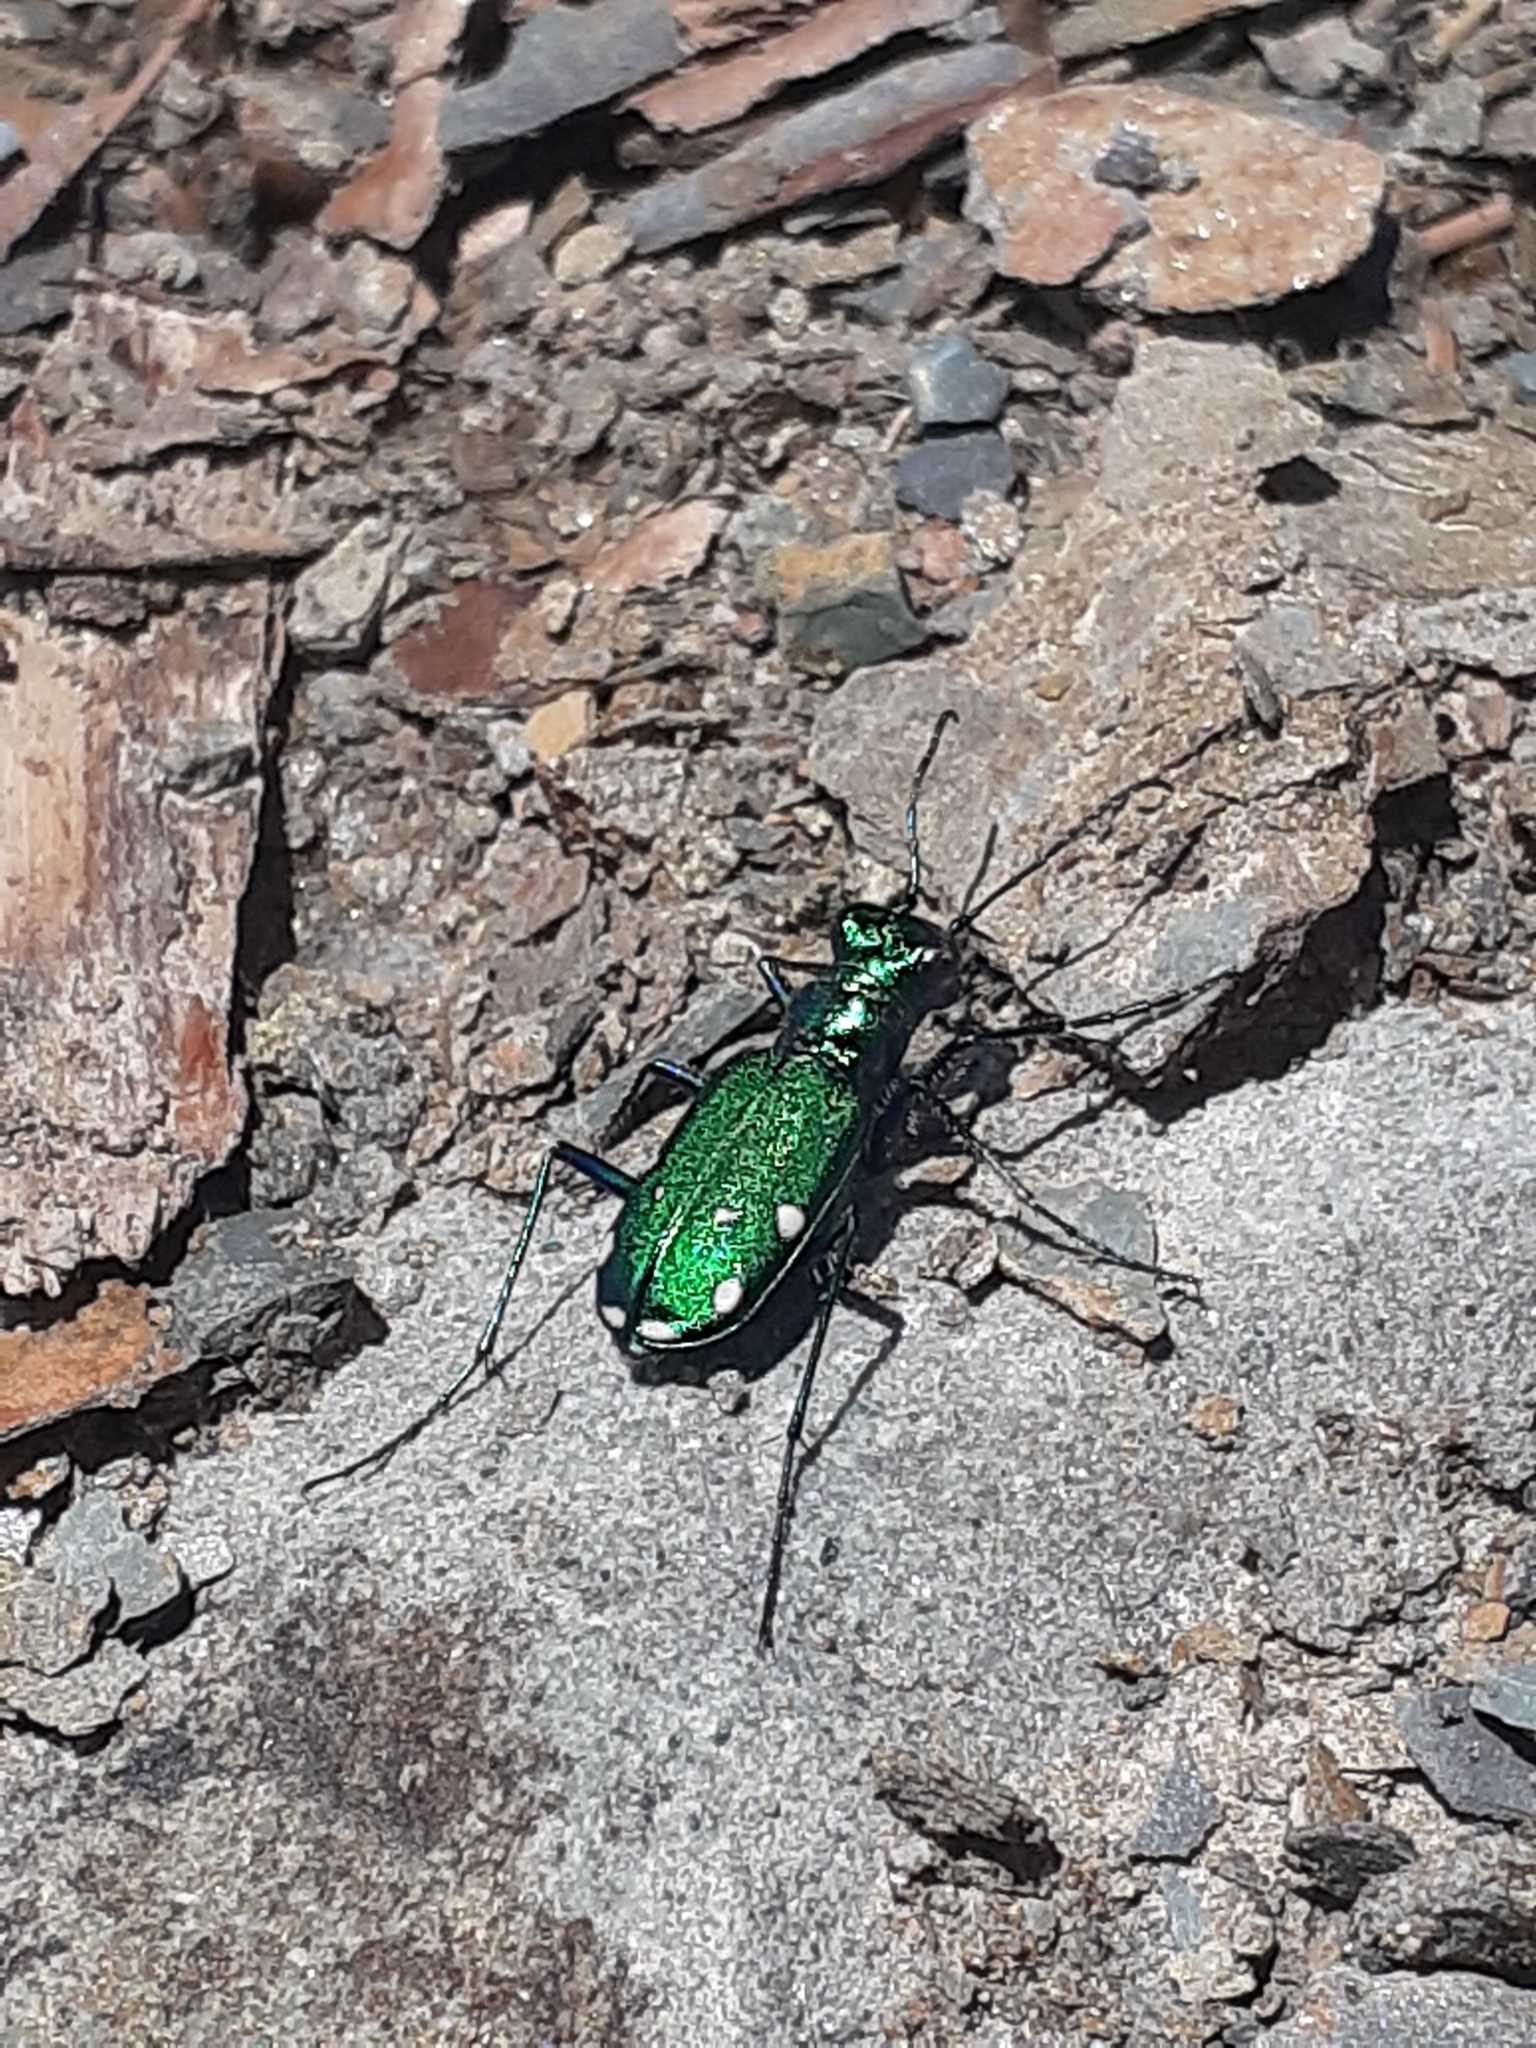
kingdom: Animalia
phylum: Arthropoda
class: Insecta
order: Coleoptera
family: Carabidae
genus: Cicindela
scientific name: Cicindela sexguttata
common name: Six-spotted tiger beetle
